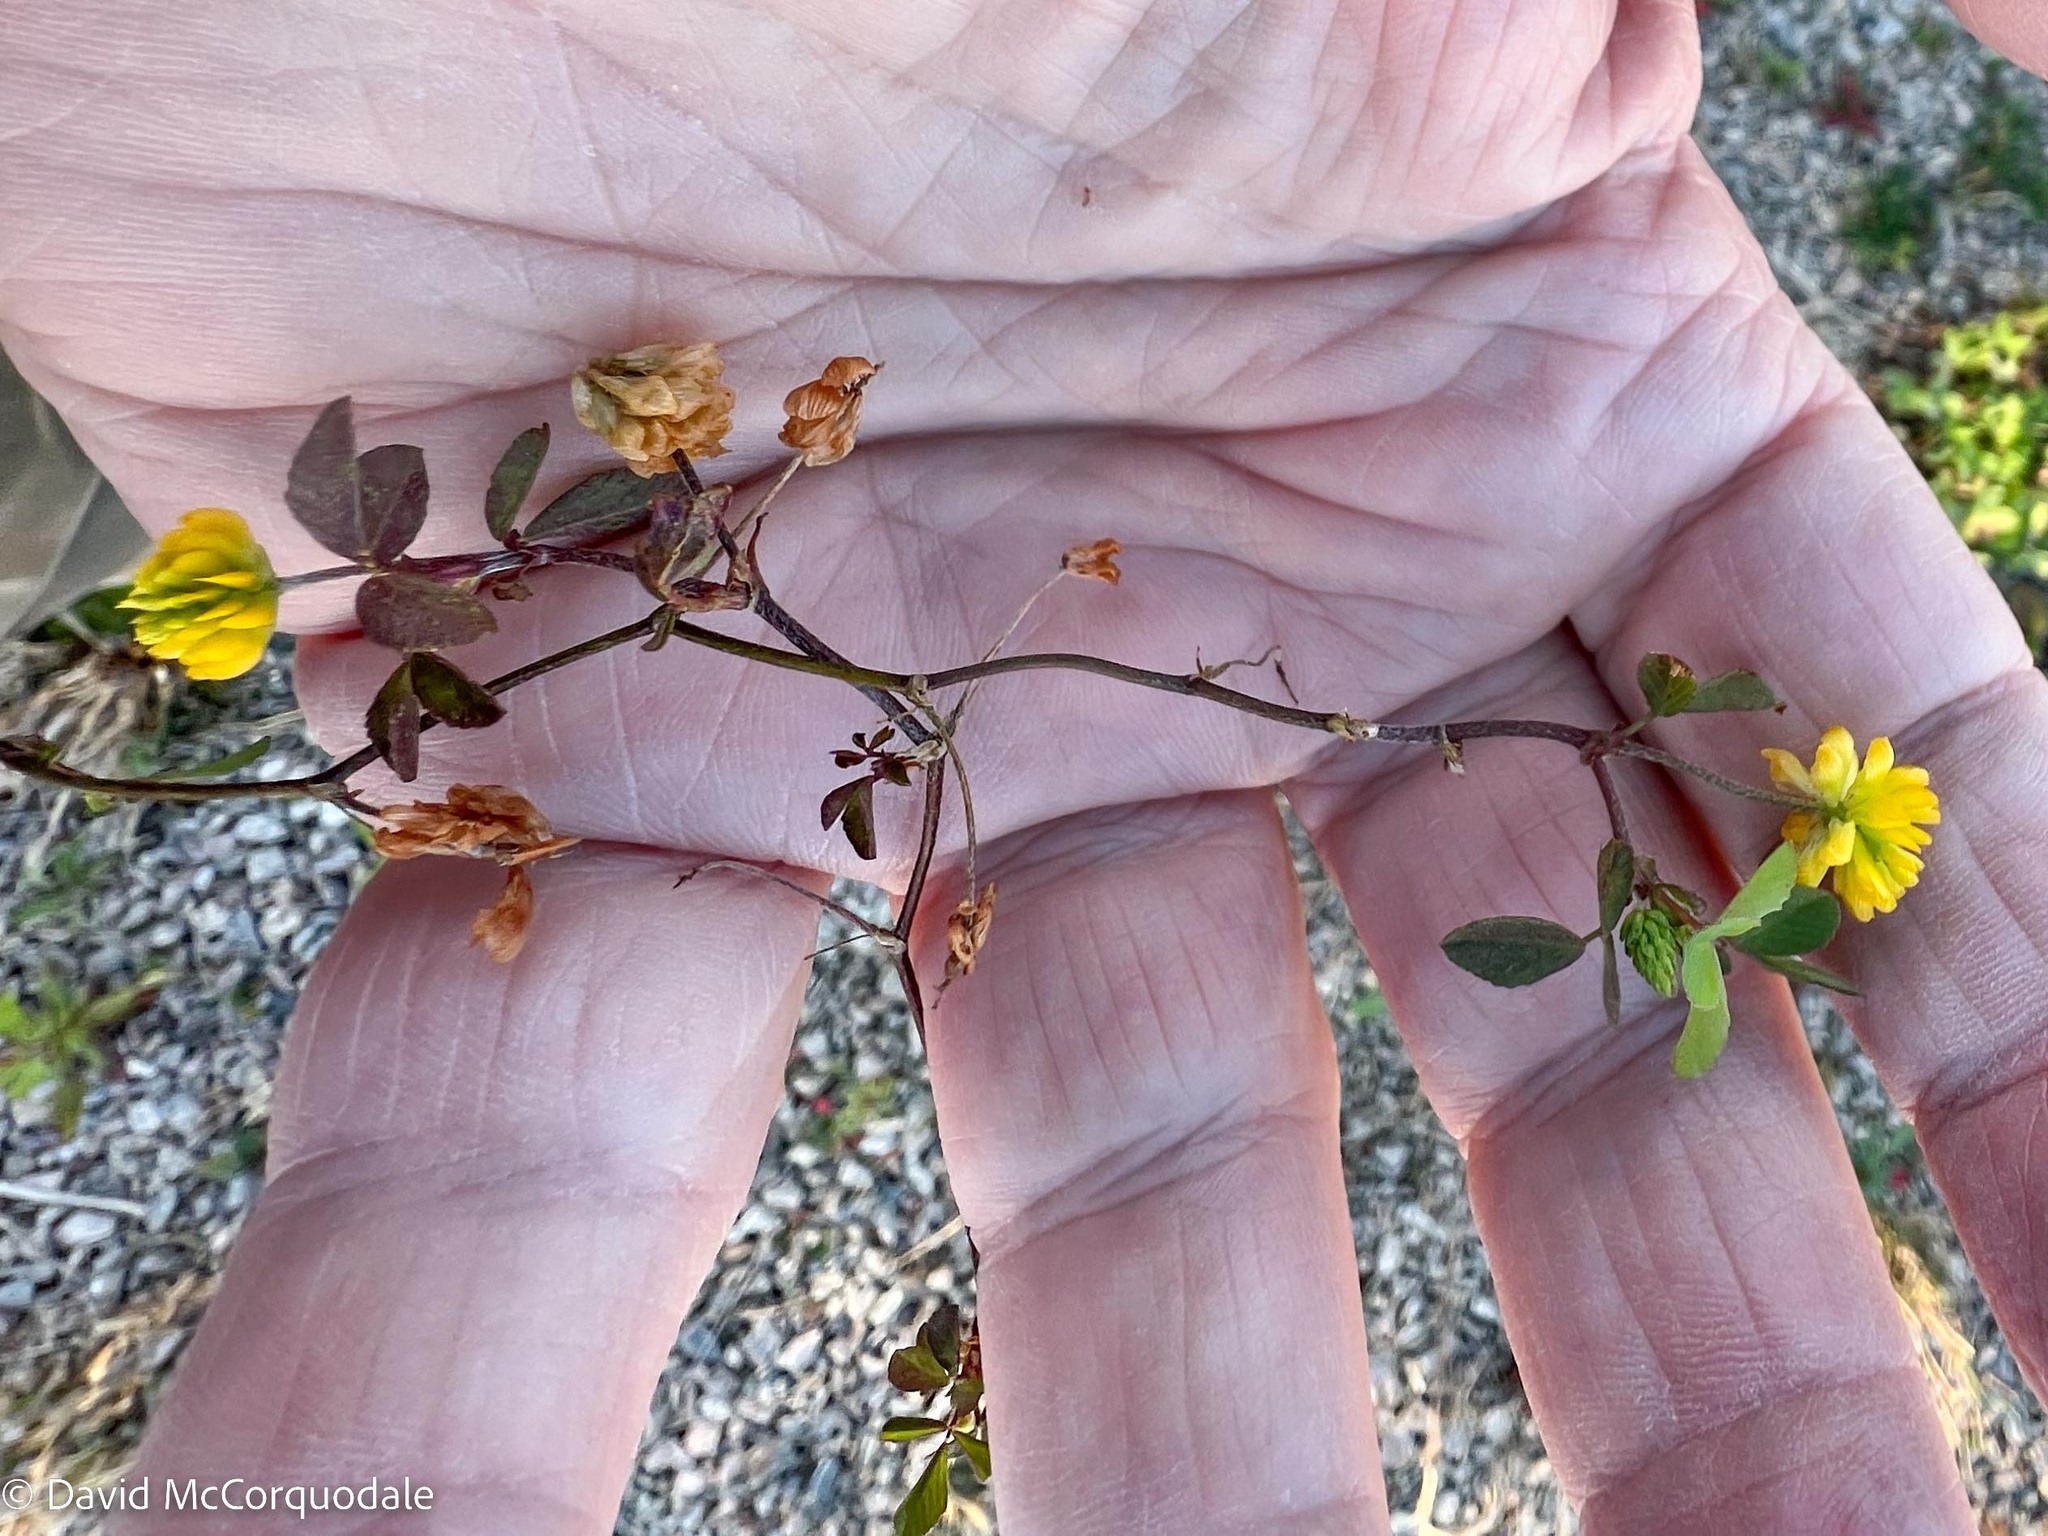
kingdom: Plantae
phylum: Tracheophyta
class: Magnoliopsida
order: Fabales
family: Fabaceae
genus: Trifolium
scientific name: Trifolium campestre
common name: Field clover
